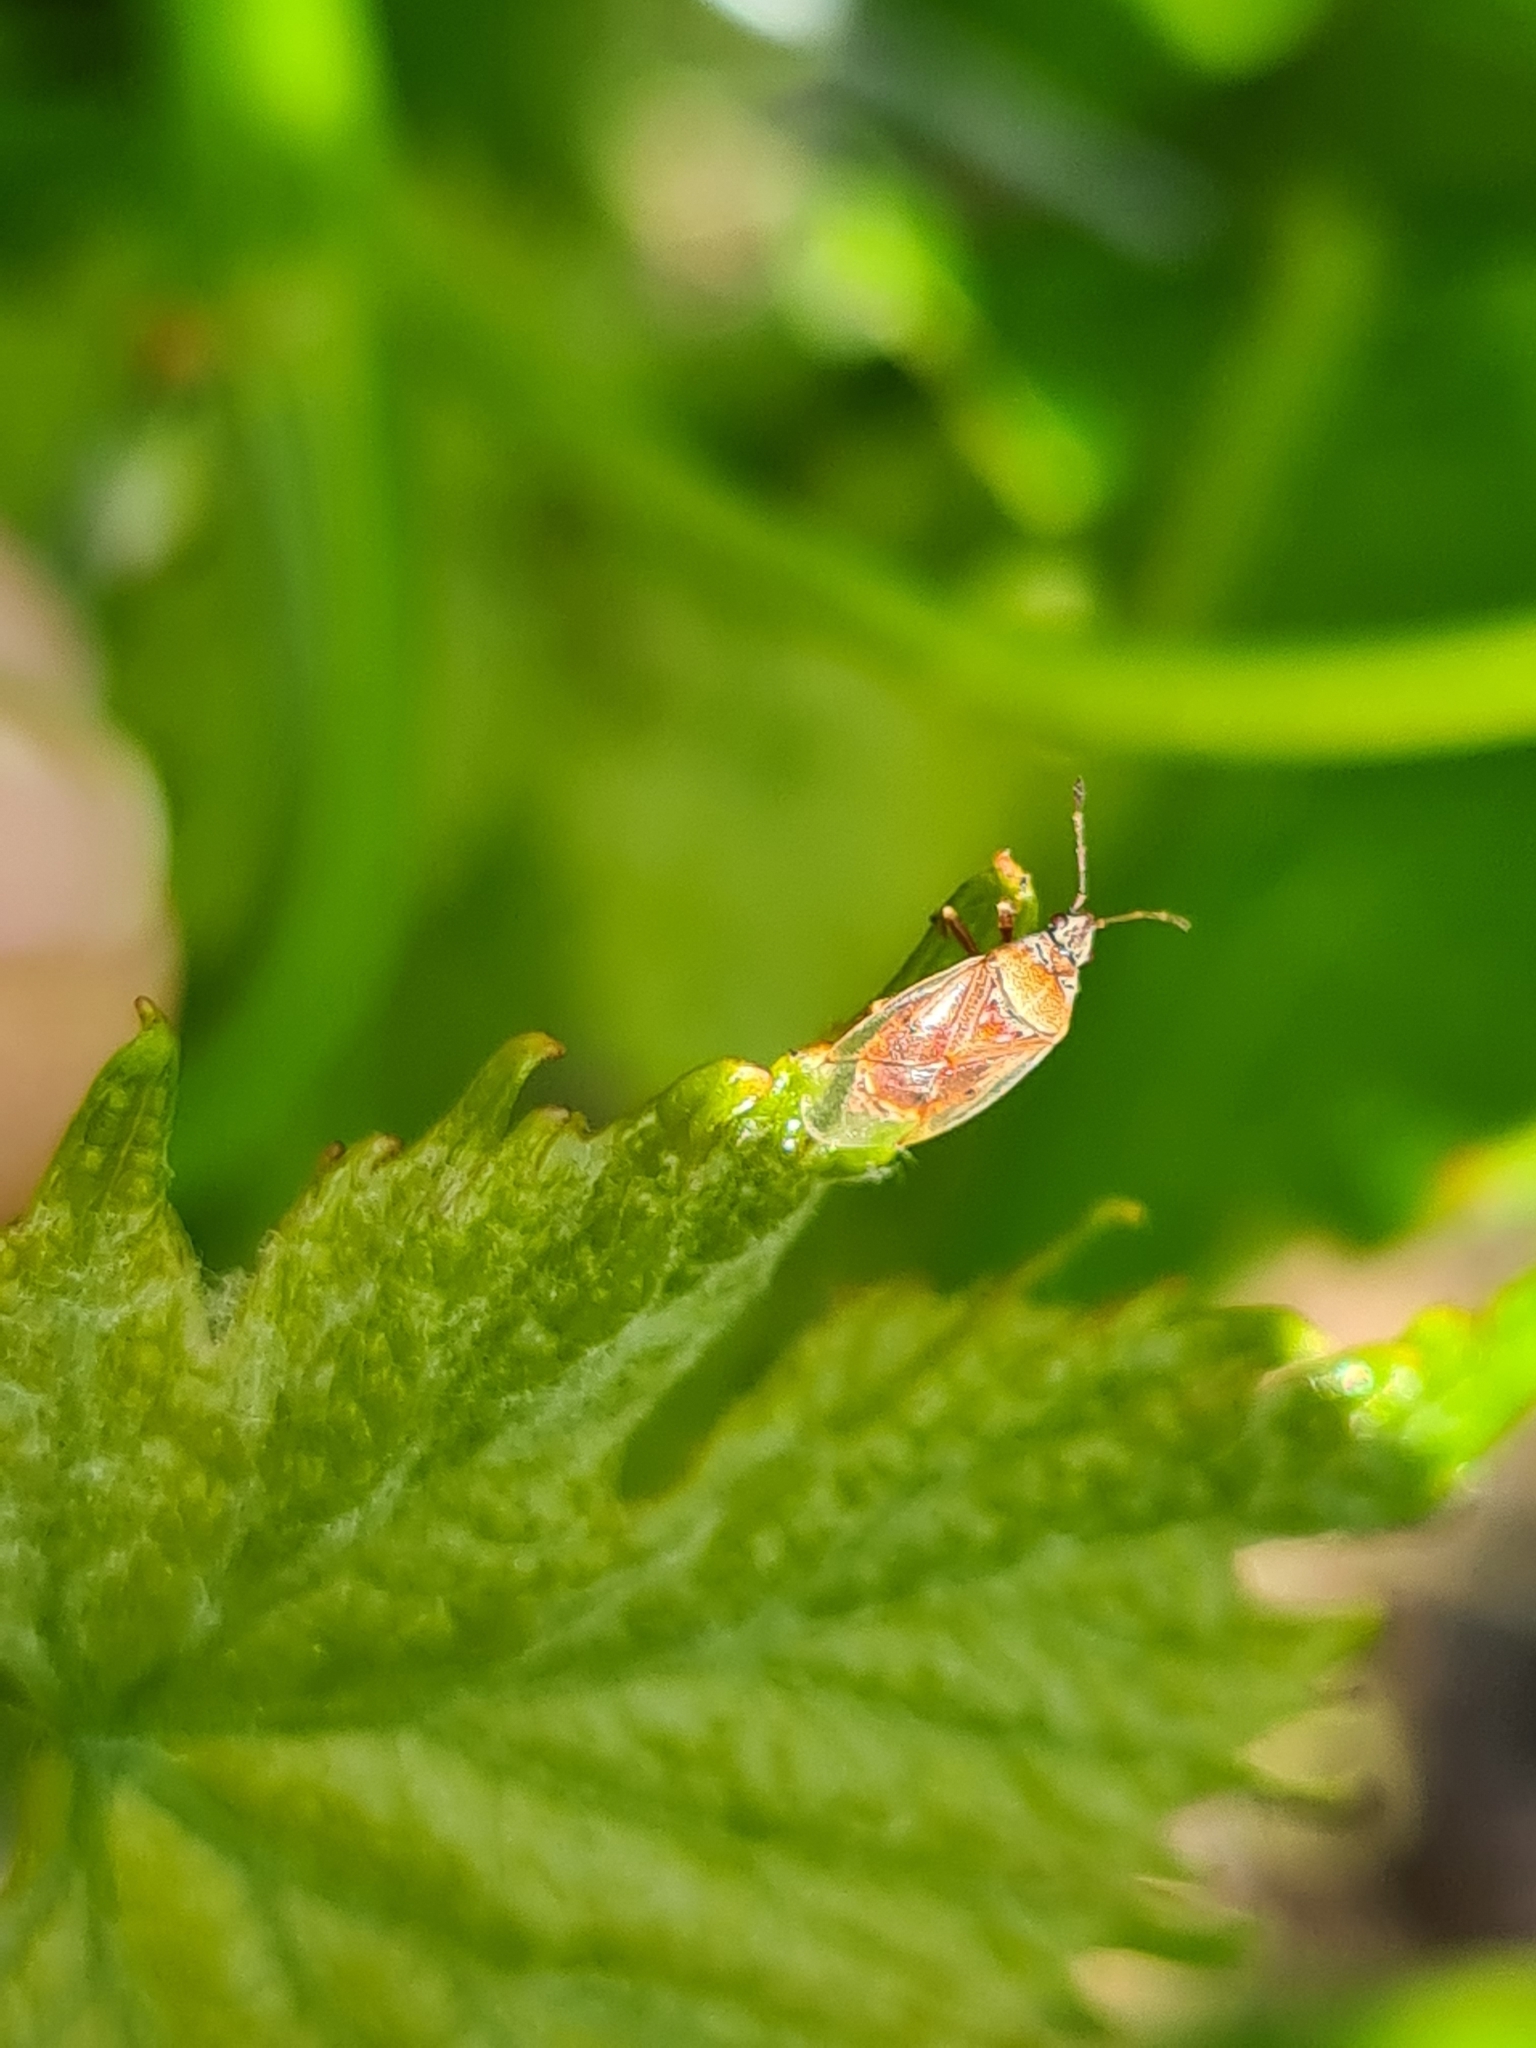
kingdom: Animalia
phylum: Arthropoda
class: Insecta
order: Hemiptera
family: Lygaeidae
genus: Kleidocerys
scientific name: Kleidocerys resedae
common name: Birch catkin bug
